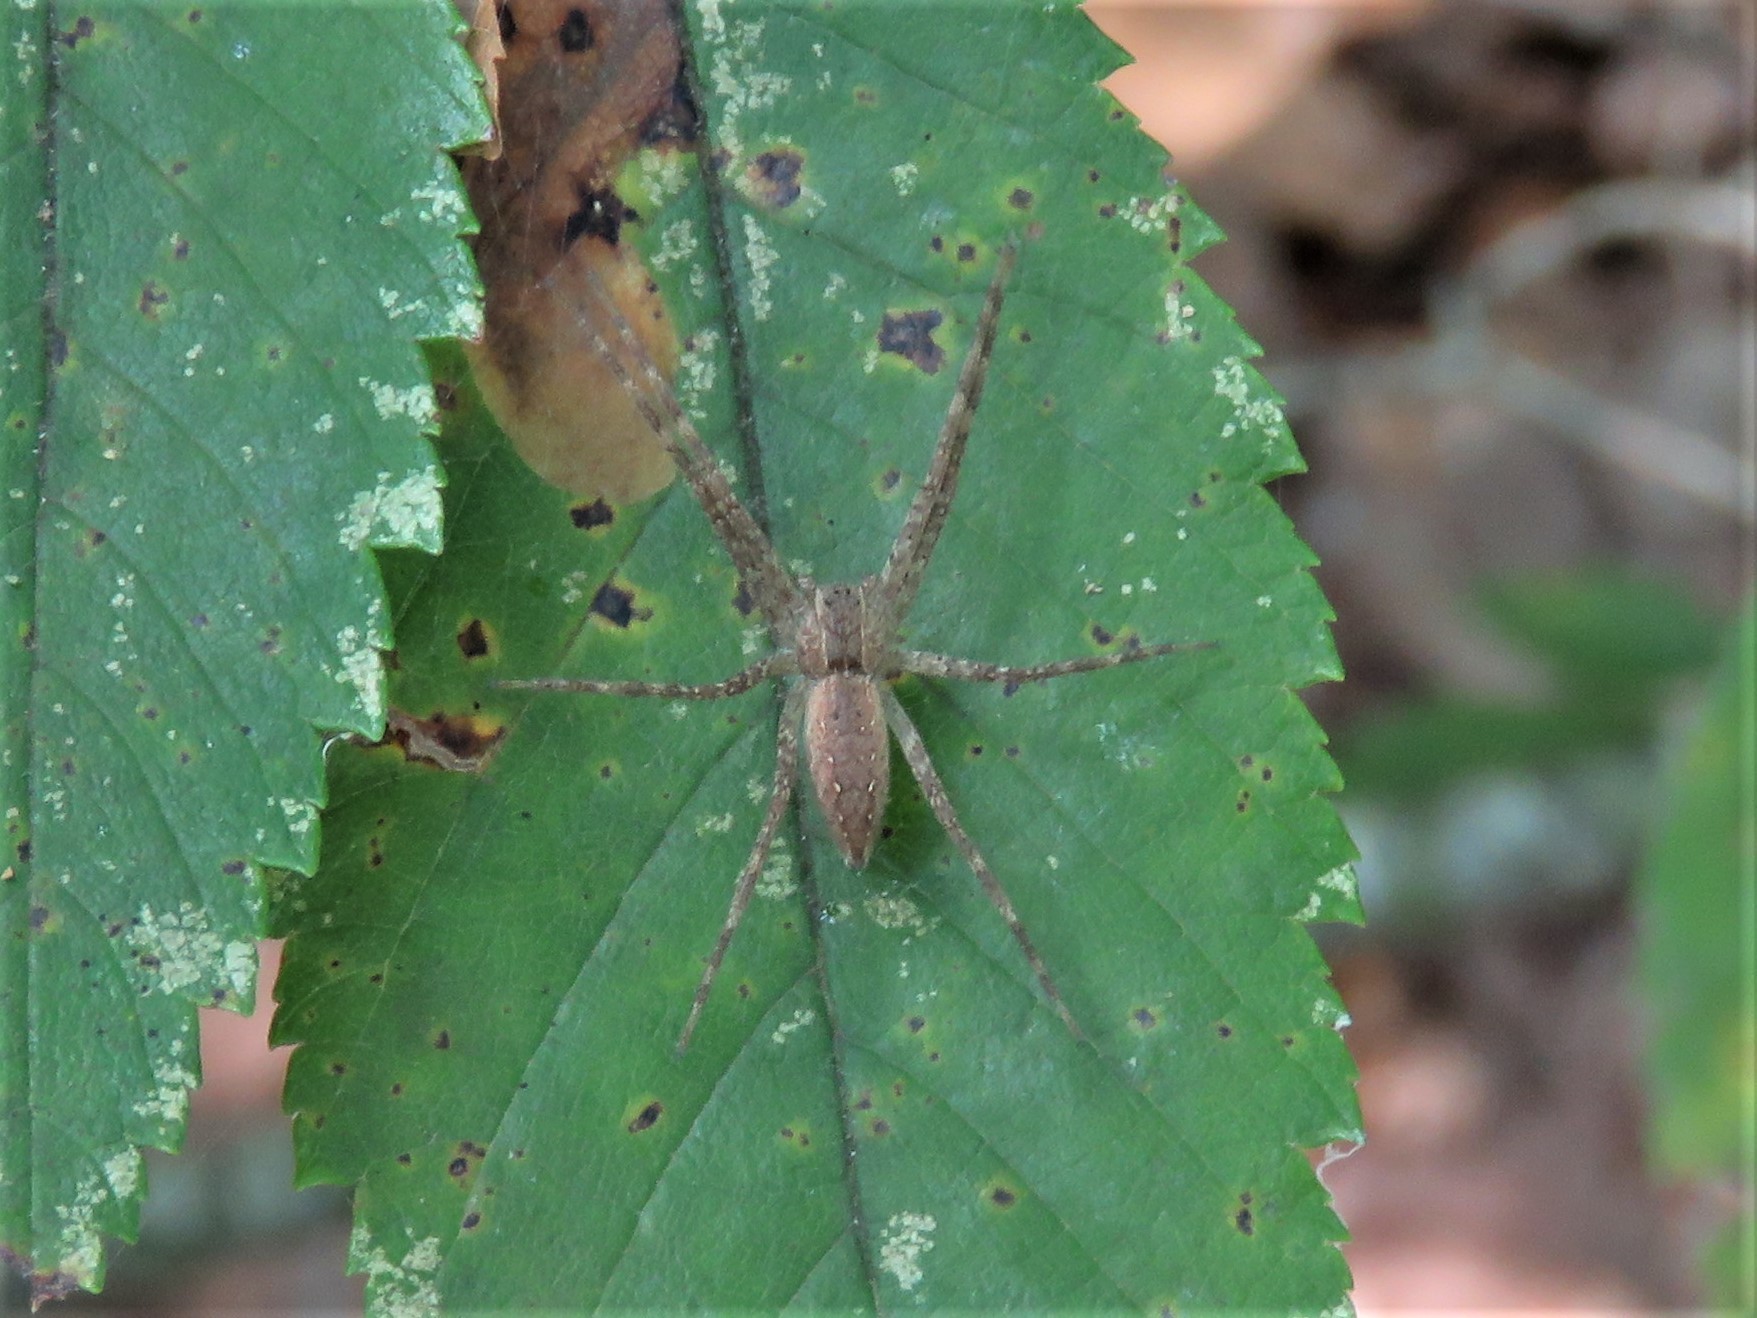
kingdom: Animalia
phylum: Arthropoda
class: Arachnida
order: Araneae
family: Pisauridae
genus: Pisaurina
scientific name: Pisaurina mira
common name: American nursery web spider
